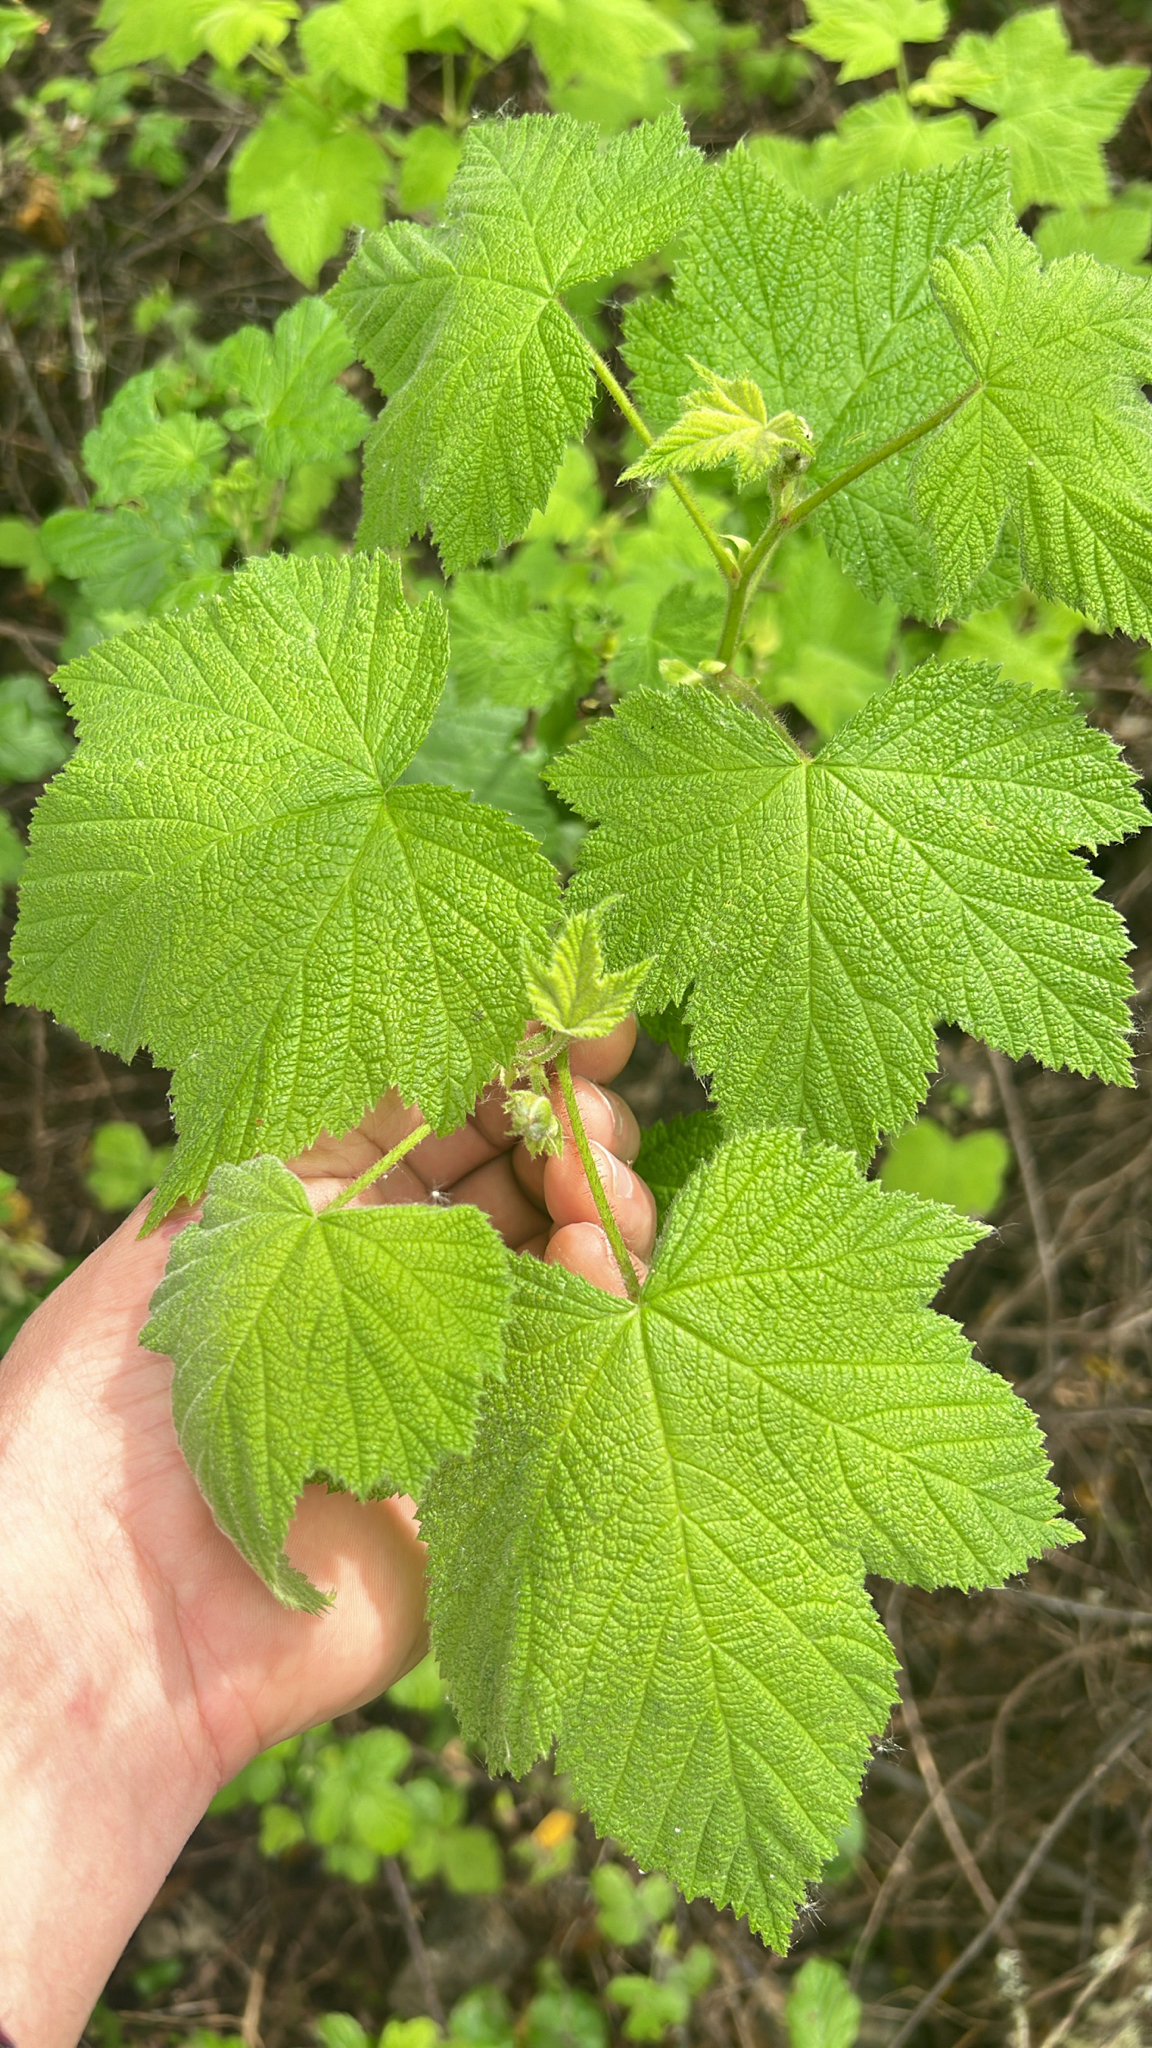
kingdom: Plantae
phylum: Tracheophyta
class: Magnoliopsida
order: Rosales
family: Rosaceae
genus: Rubus
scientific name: Rubus parviflorus
